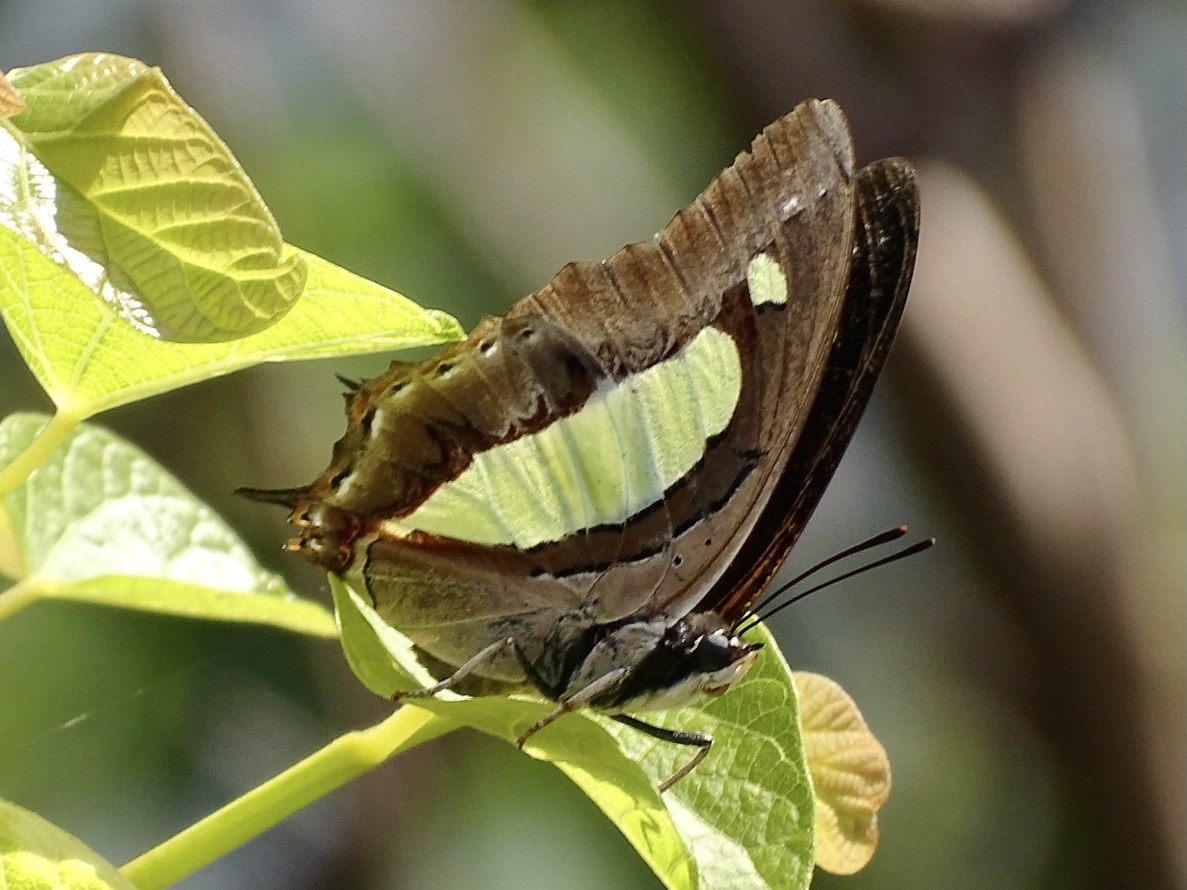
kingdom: Animalia
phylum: Arthropoda
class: Insecta
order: Lepidoptera
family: Nymphalidae
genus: Polyura
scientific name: Polyura athamas
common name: Common nawab
